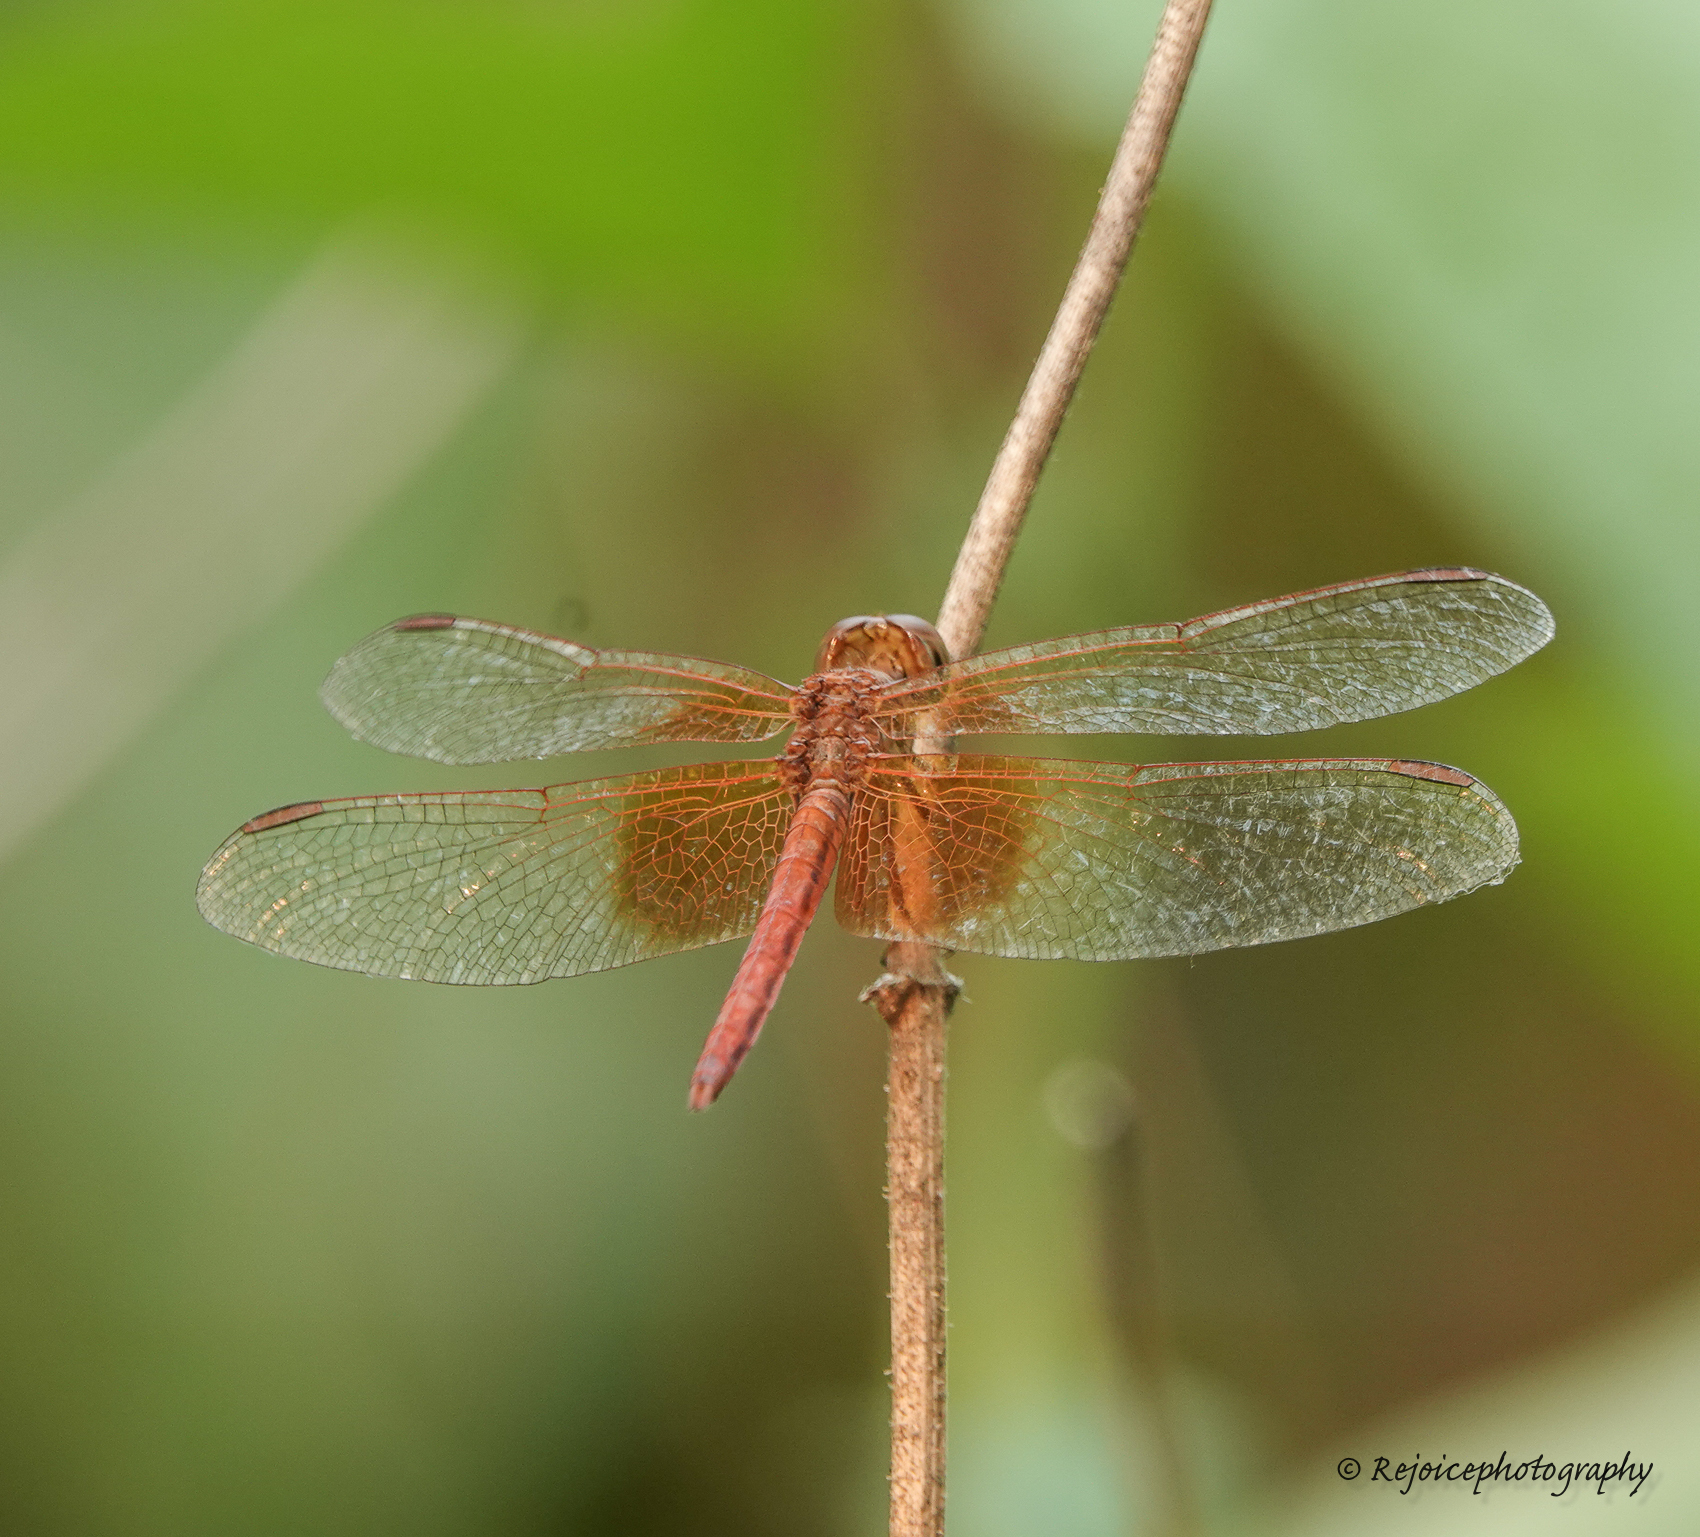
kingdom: Animalia
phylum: Arthropoda
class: Insecta
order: Odonata
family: Libellulidae
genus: Neurothemis
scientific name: Neurothemis intermedia
